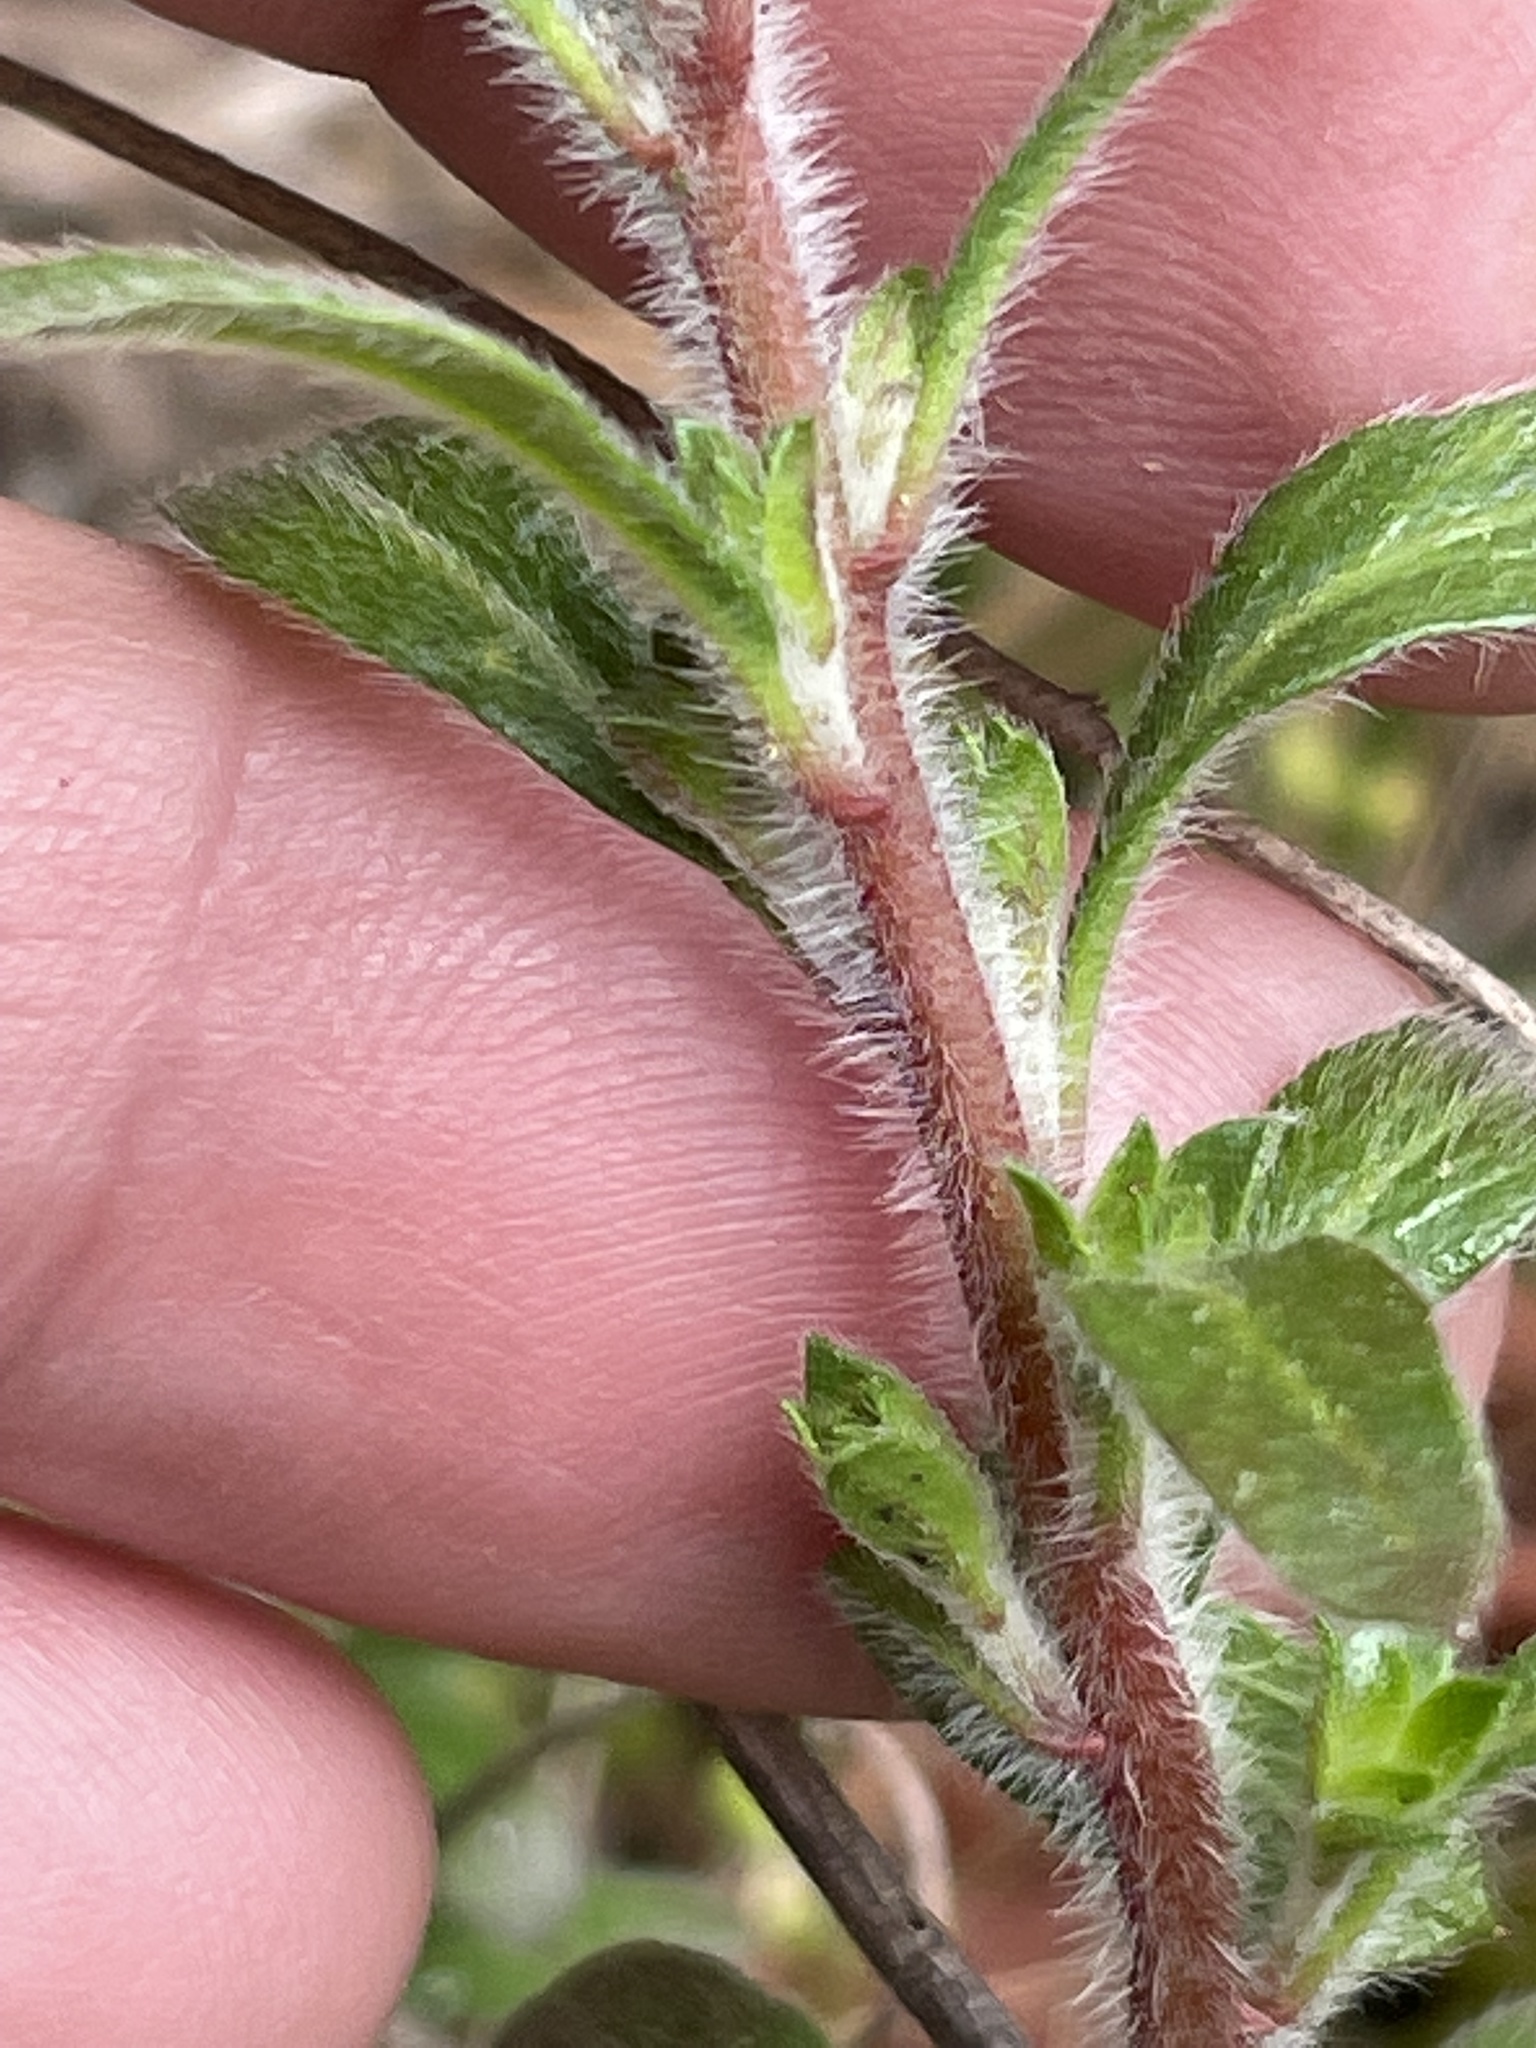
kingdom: Plantae
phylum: Tracheophyta
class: Magnoliopsida
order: Malvales
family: Cistaceae
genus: Lechea
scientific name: Lechea mucronata
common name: Hairy pinweed
